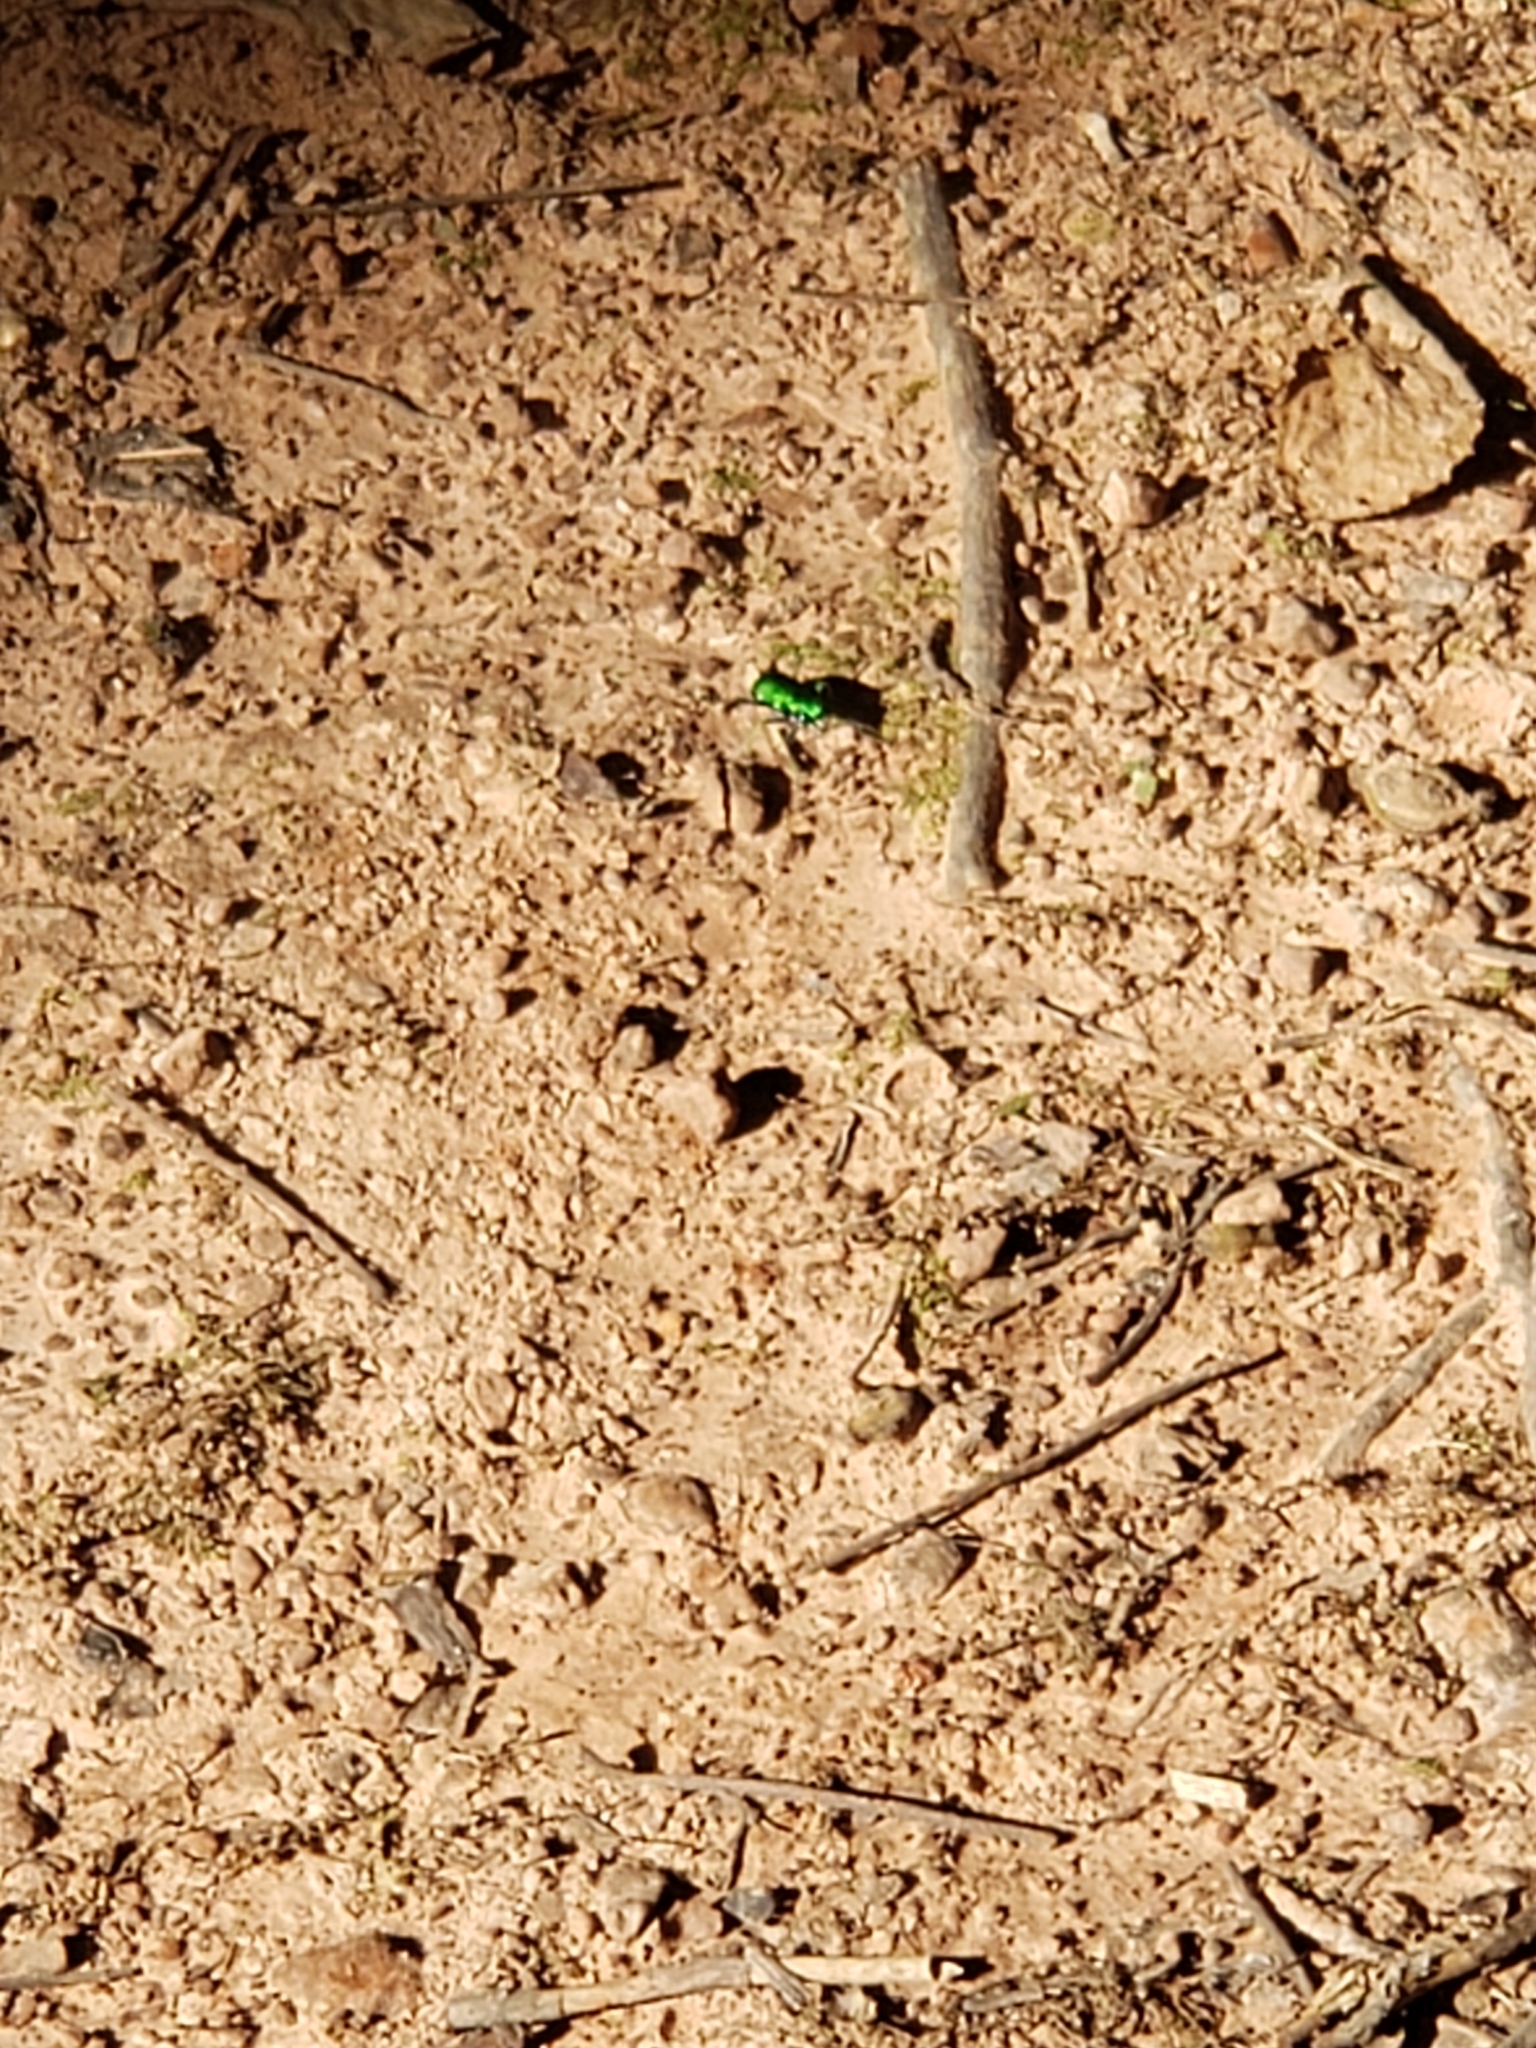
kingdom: Animalia
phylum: Arthropoda
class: Insecta
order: Coleoptera
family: Carabidae
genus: Cicindela
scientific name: Cicindela sexguttata
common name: Six-spotted tiger beetle
